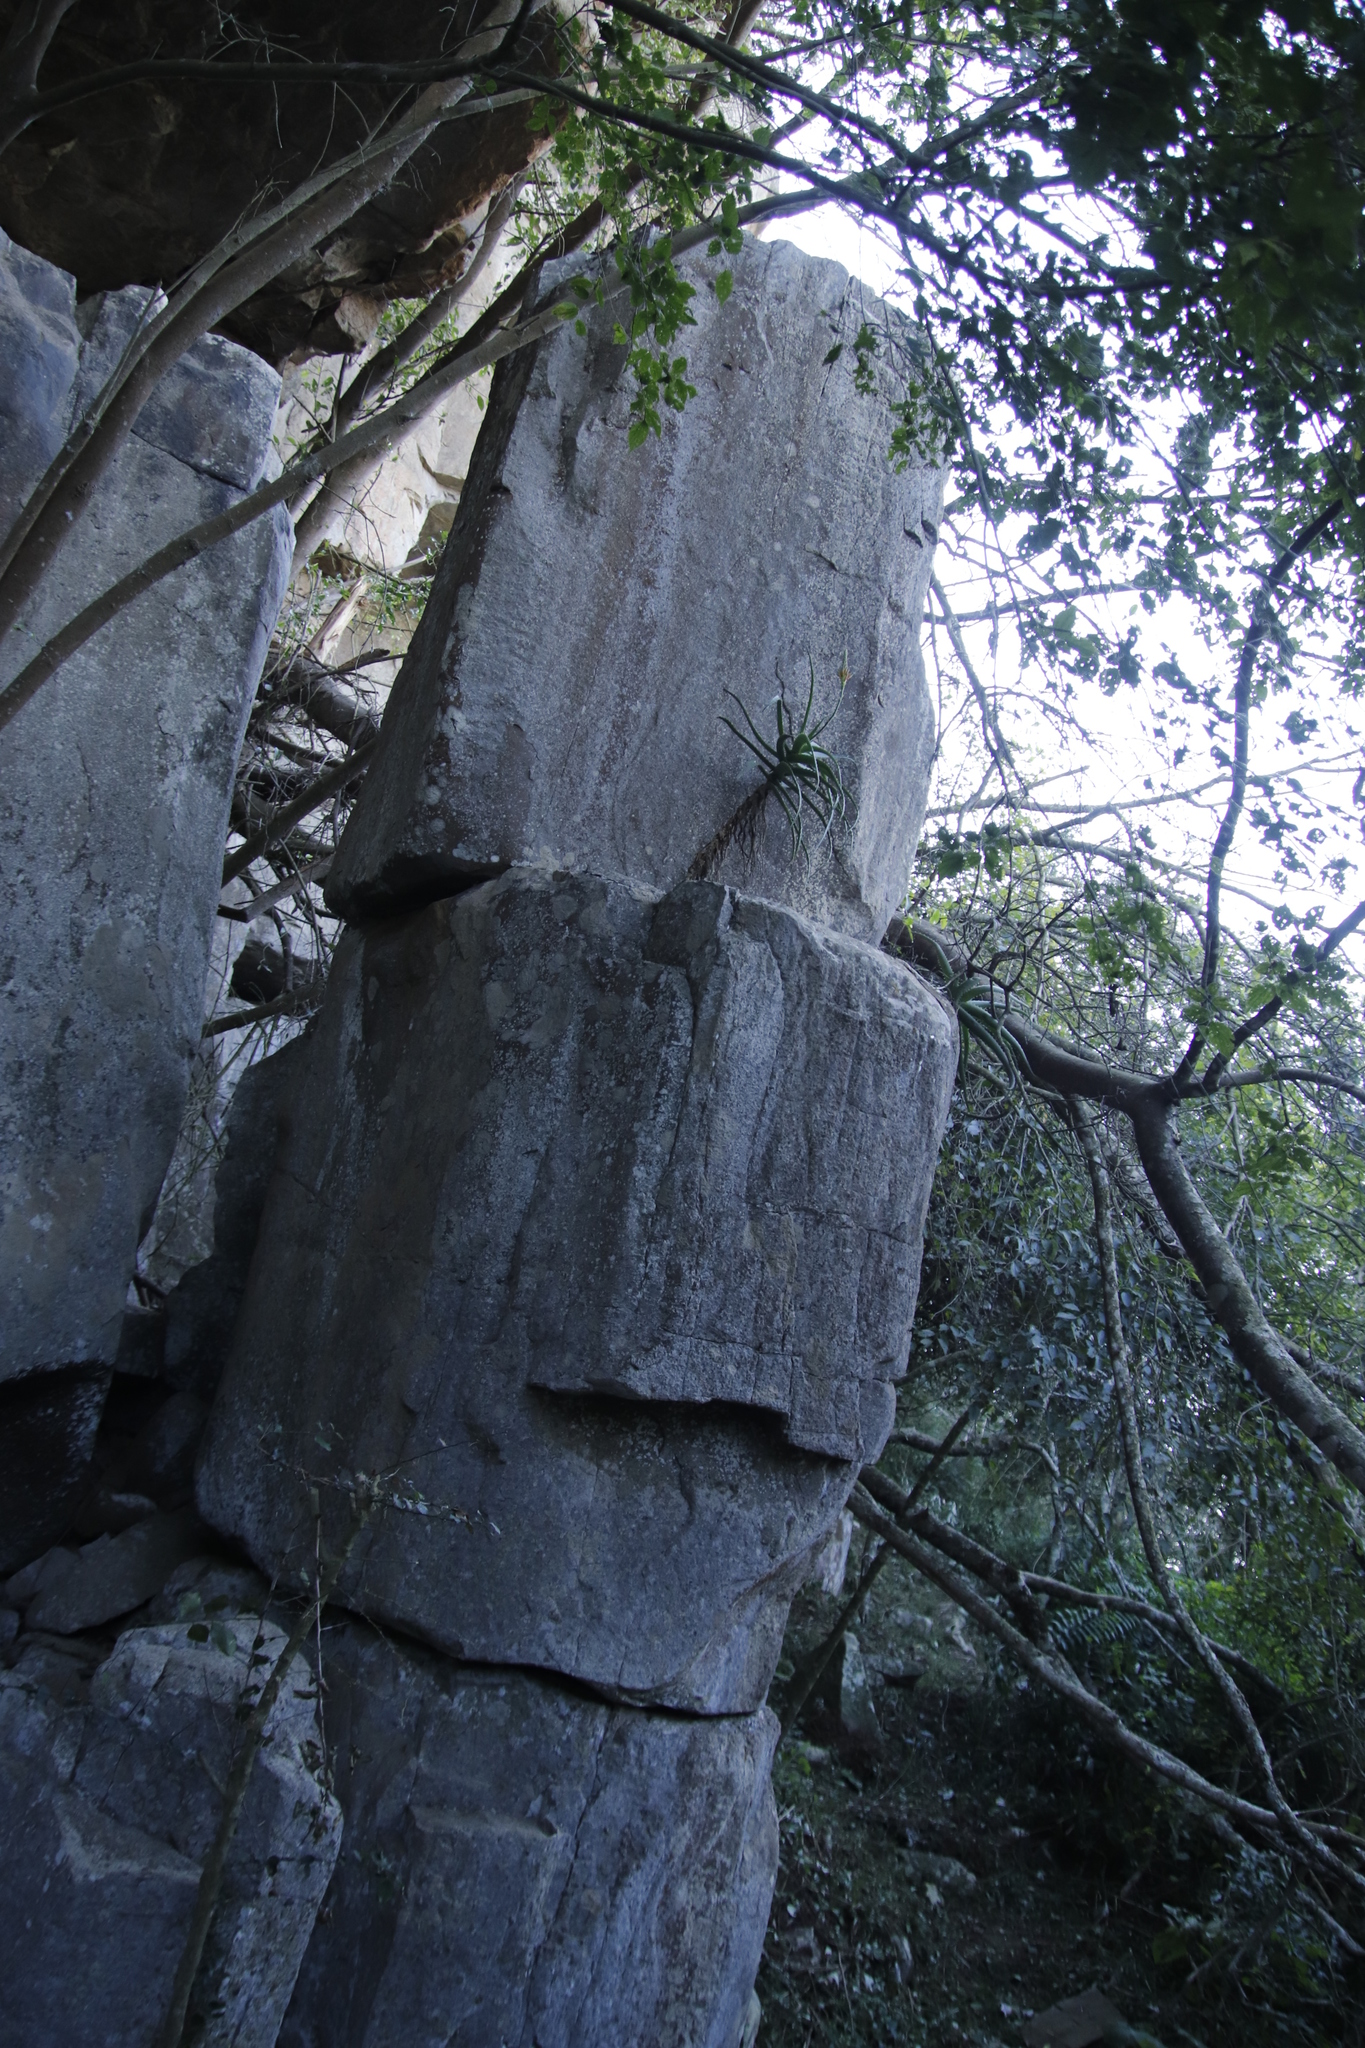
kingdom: Plantae
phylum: Tracheophyta
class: Liliopsida
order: Asparagales
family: Asphodelaceae
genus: Aloe
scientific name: Aloe arborescens
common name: Candelabra aloe
